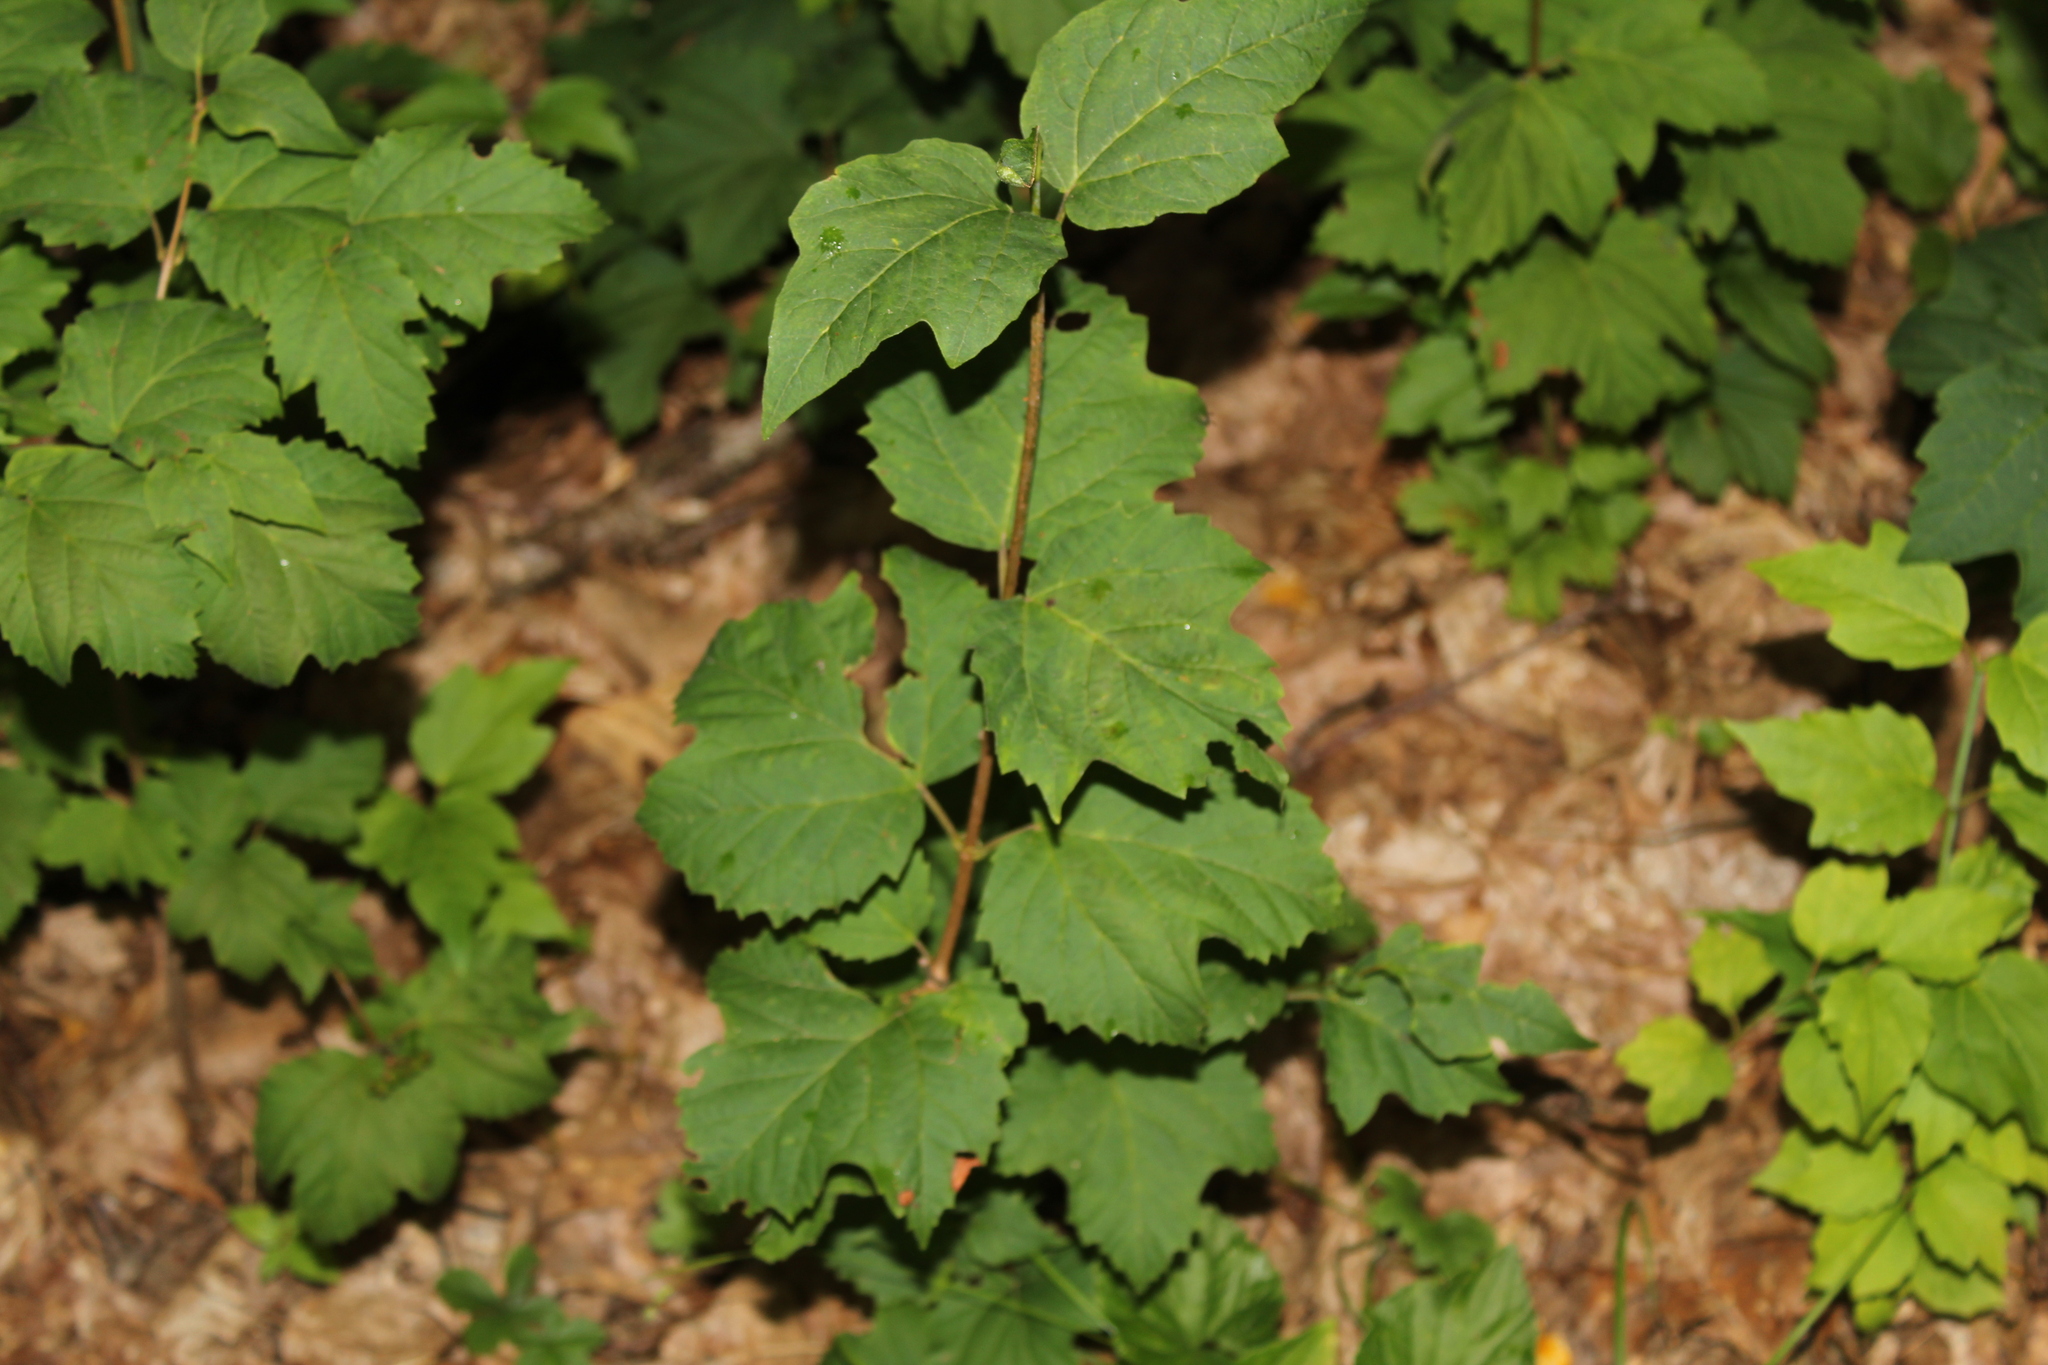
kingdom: Plantae
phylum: Tracheophyta
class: Magnoliopsida
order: Dipsacales
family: Viburnaceae
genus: Viburnum
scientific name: Viburnum acerifolium
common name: Dockmackie
